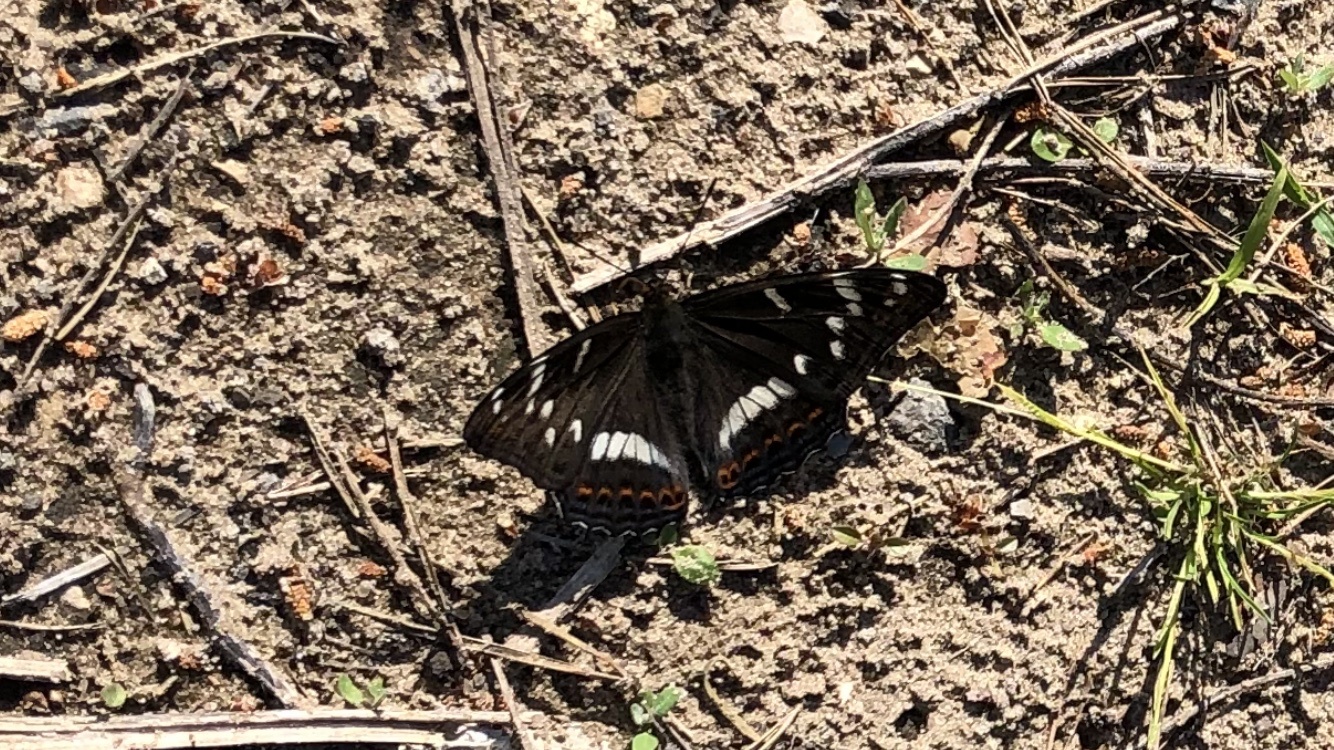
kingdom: Animalia
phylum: Arthropoda
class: Insecta
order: Lepidoptera
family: Nymphalidae
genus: Limenitis
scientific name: Limenitis populi
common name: Poplar admiral
